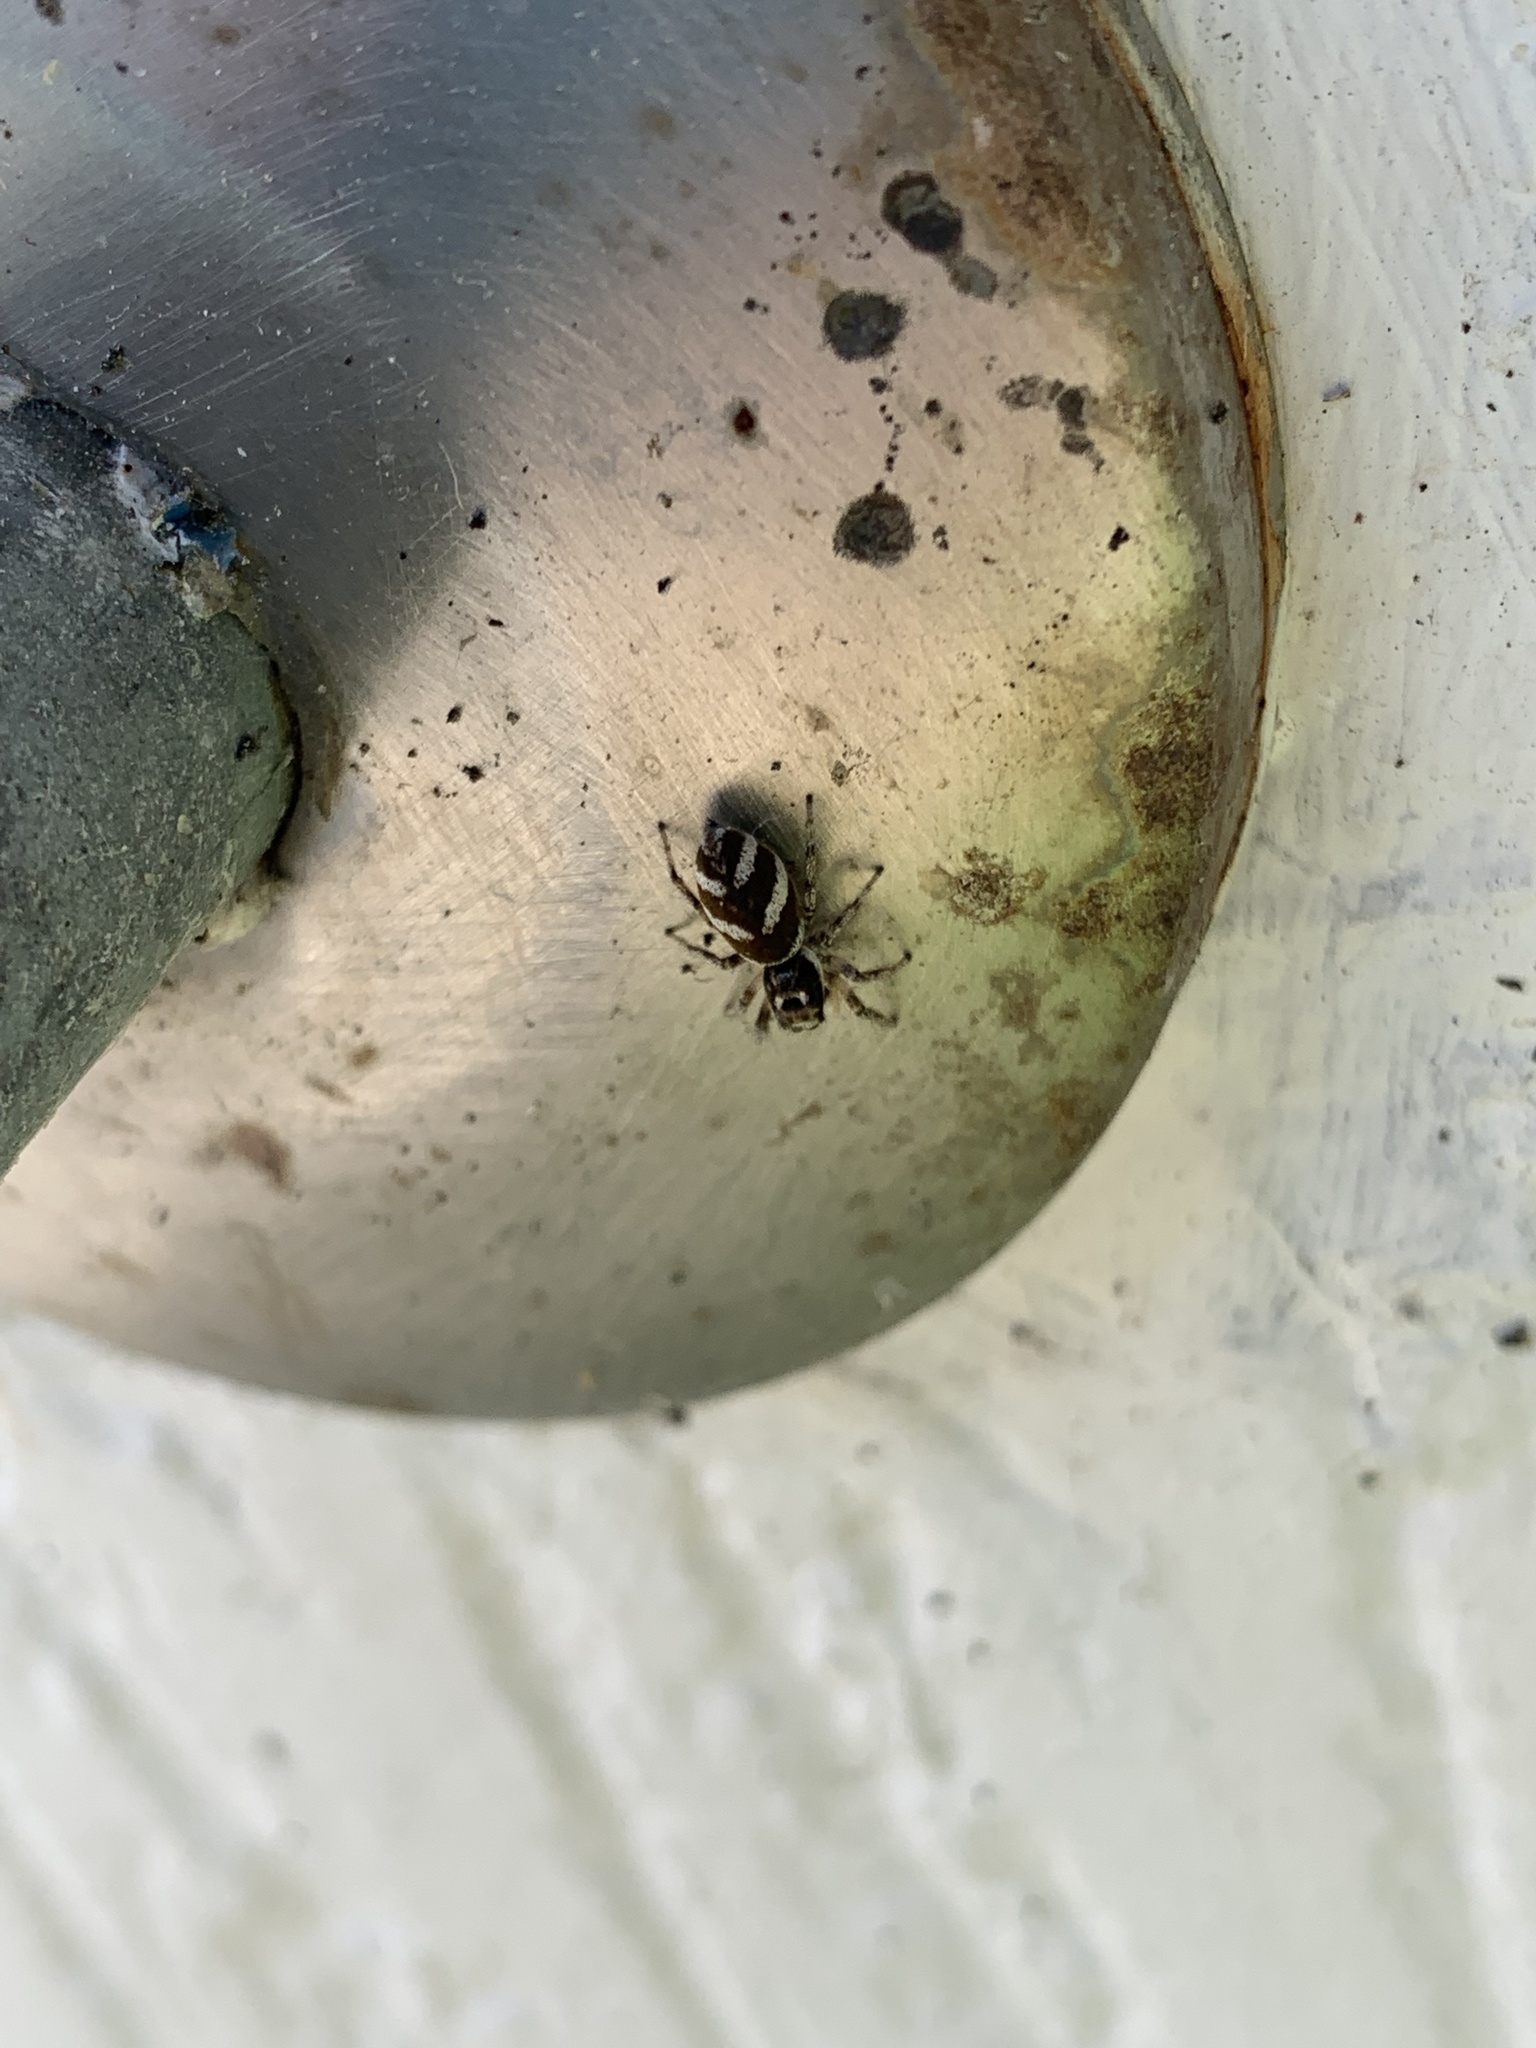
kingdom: Animalia
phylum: Arthropoda
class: Arachnida
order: Araneae
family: Salticidae
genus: Salticus
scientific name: Salticus scenicus
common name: Zebra jumper
